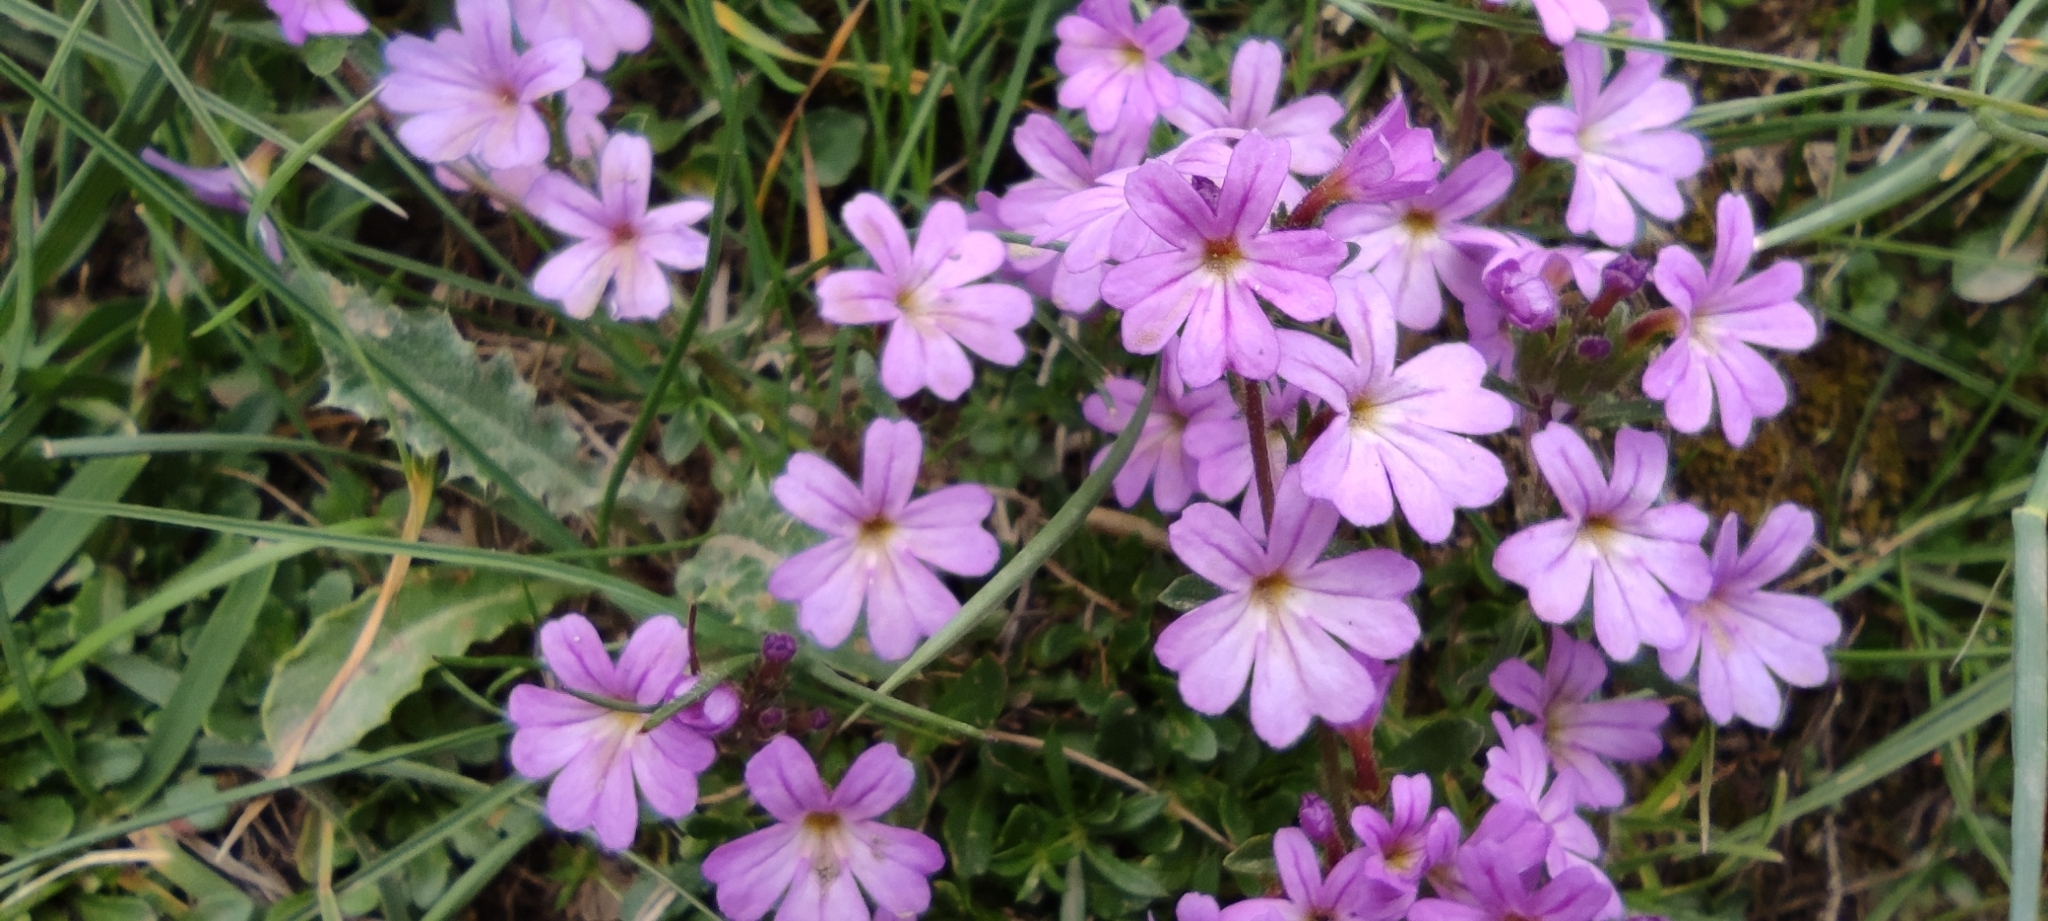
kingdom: Plantae
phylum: Tracheophyta
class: Magnoliopsida
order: Lamiales
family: Plantaginaceae
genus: Erinus
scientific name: Erinus alpinus
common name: Fairy foxglove
